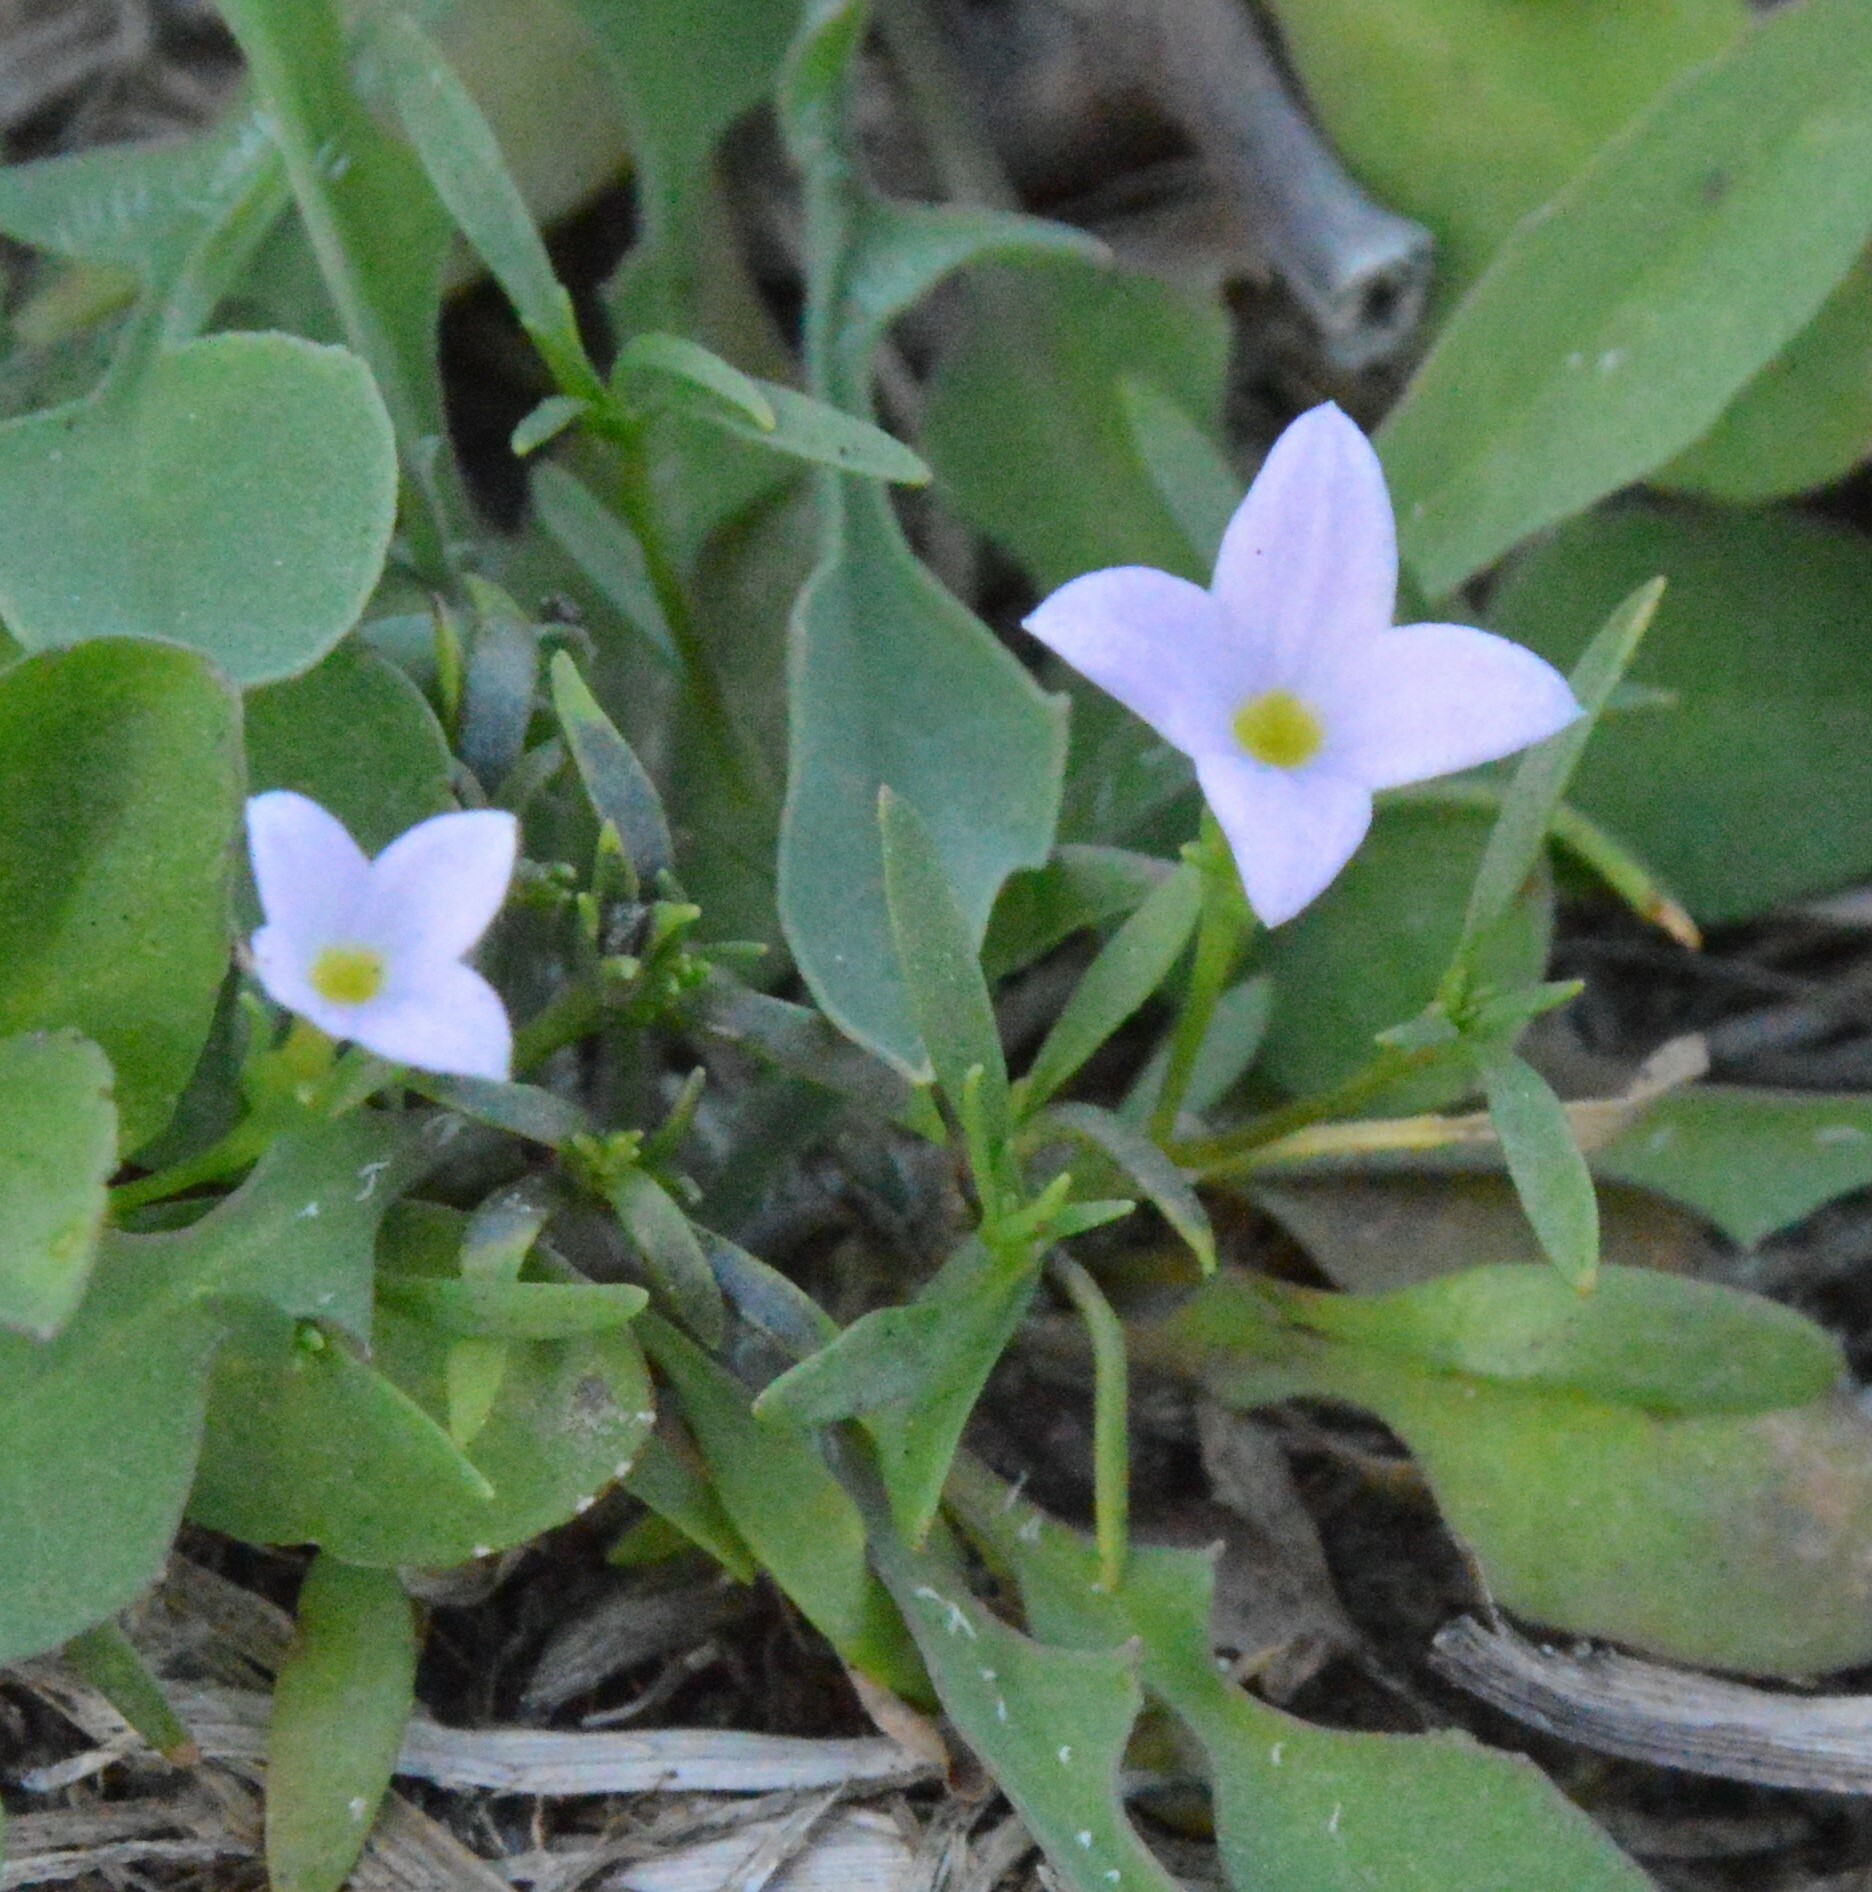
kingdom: Plantae
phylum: Tracheophyta
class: Magnoliopsida
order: Gentianales
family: Rubiaceae
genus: Houstonia
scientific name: Houstonia rosea
